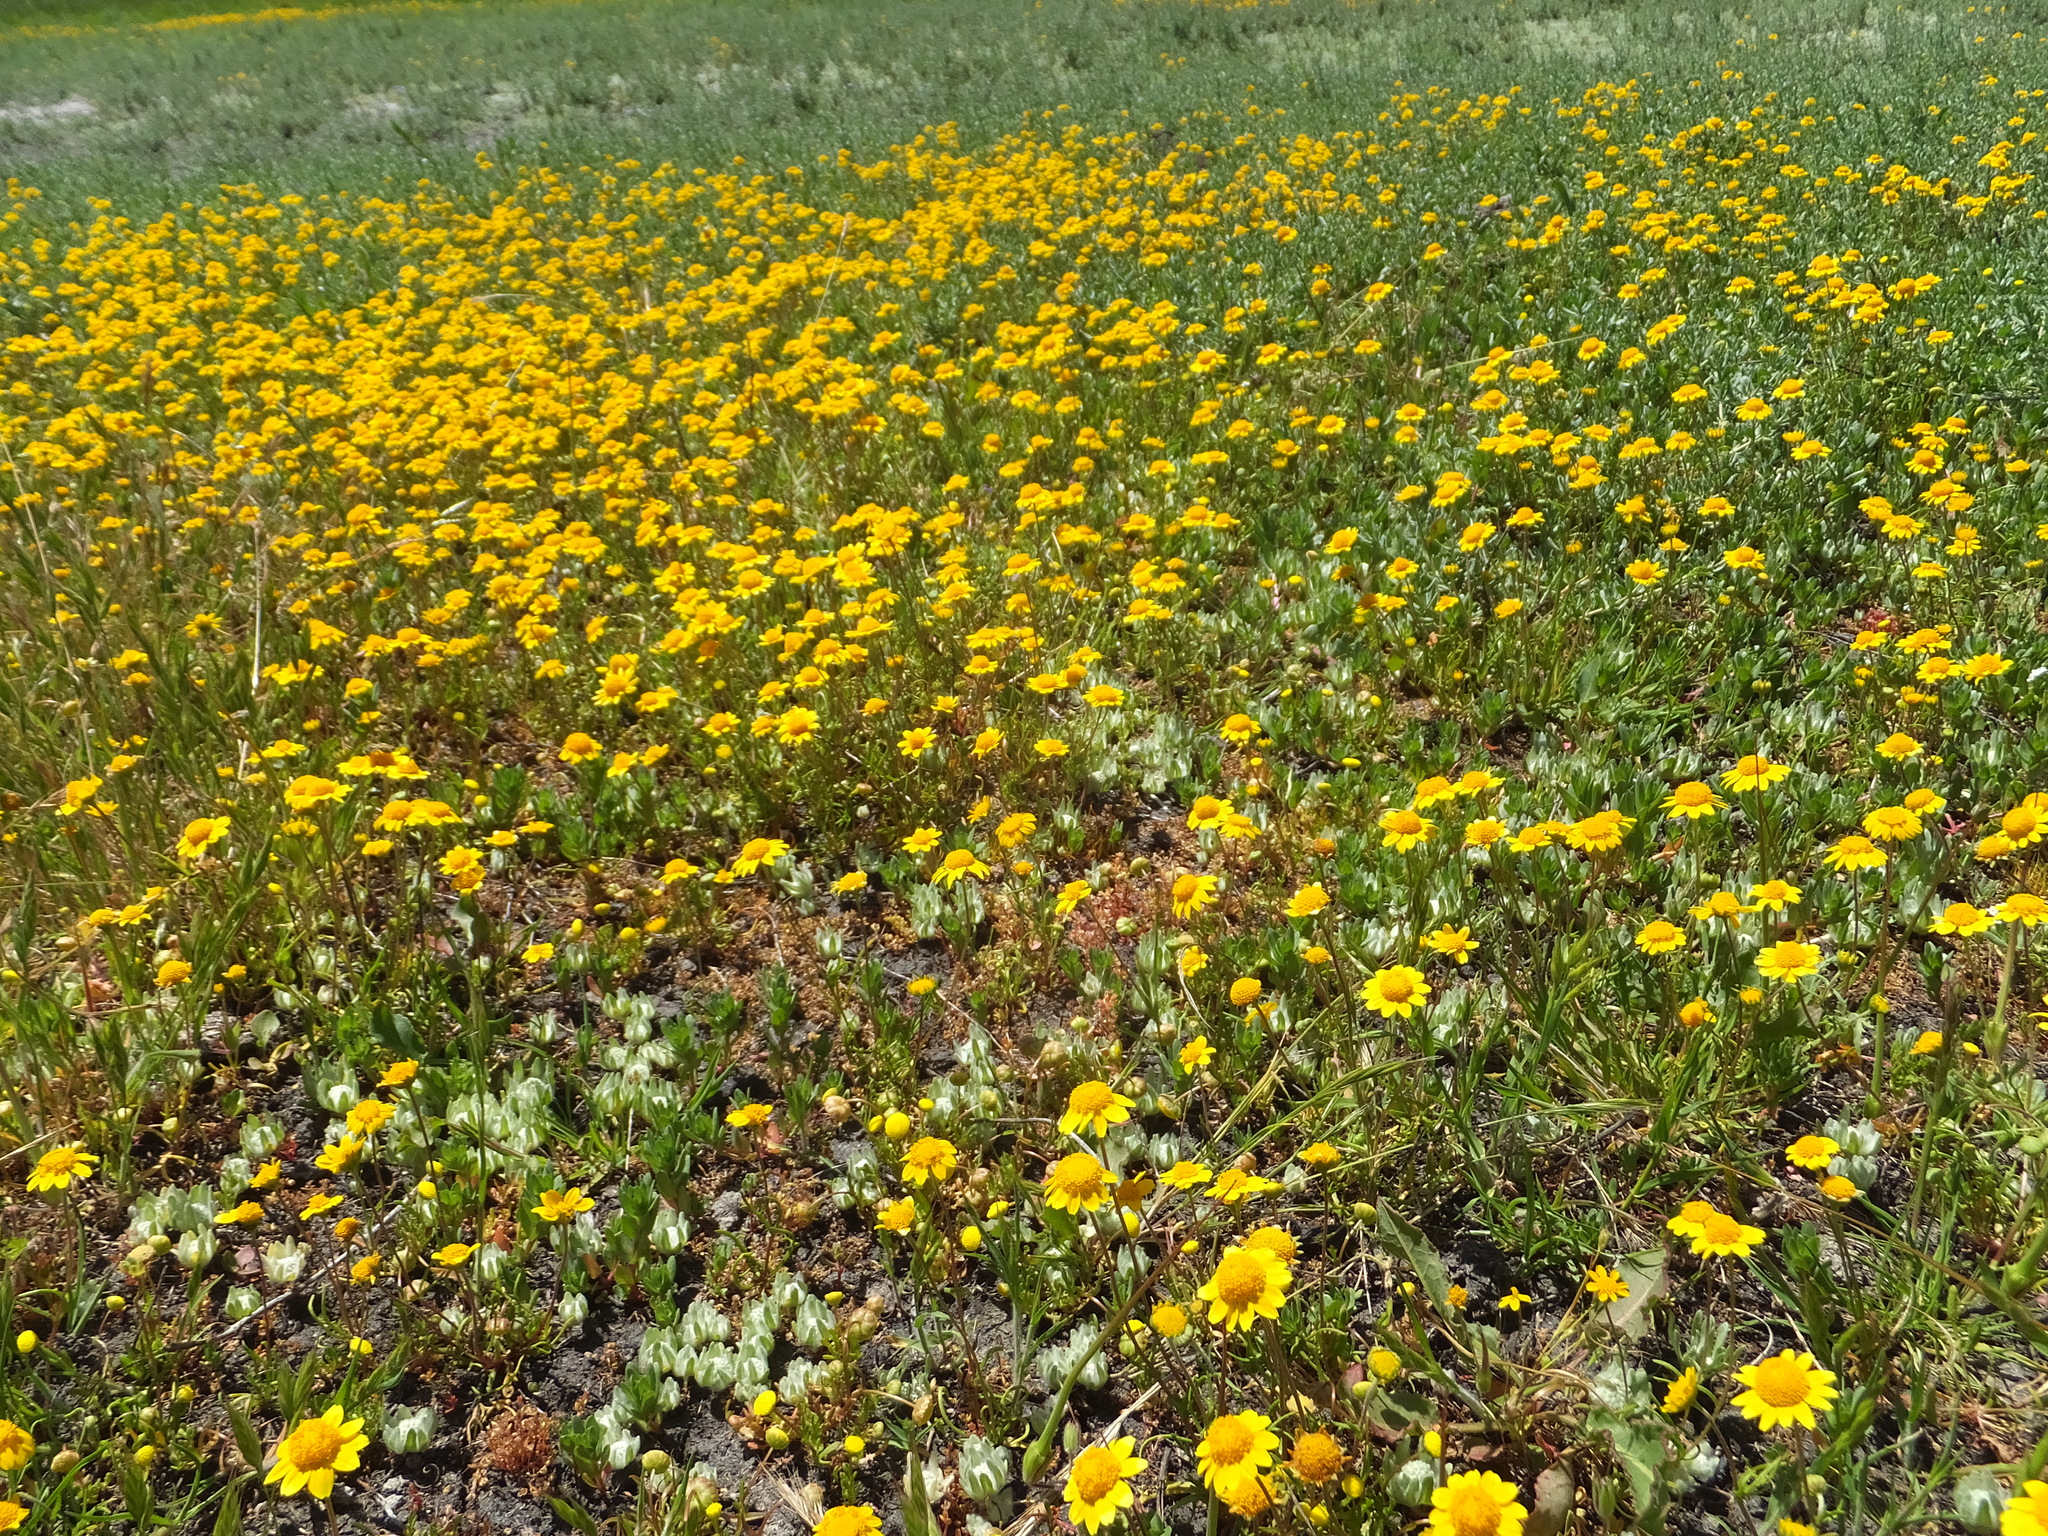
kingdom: Plantae
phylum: Tracheophyta
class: Magnoliopsida
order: Asterales
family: Asteraceae
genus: Lasthenia
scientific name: Lasthenia conjugens
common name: Contra costa goldfields
